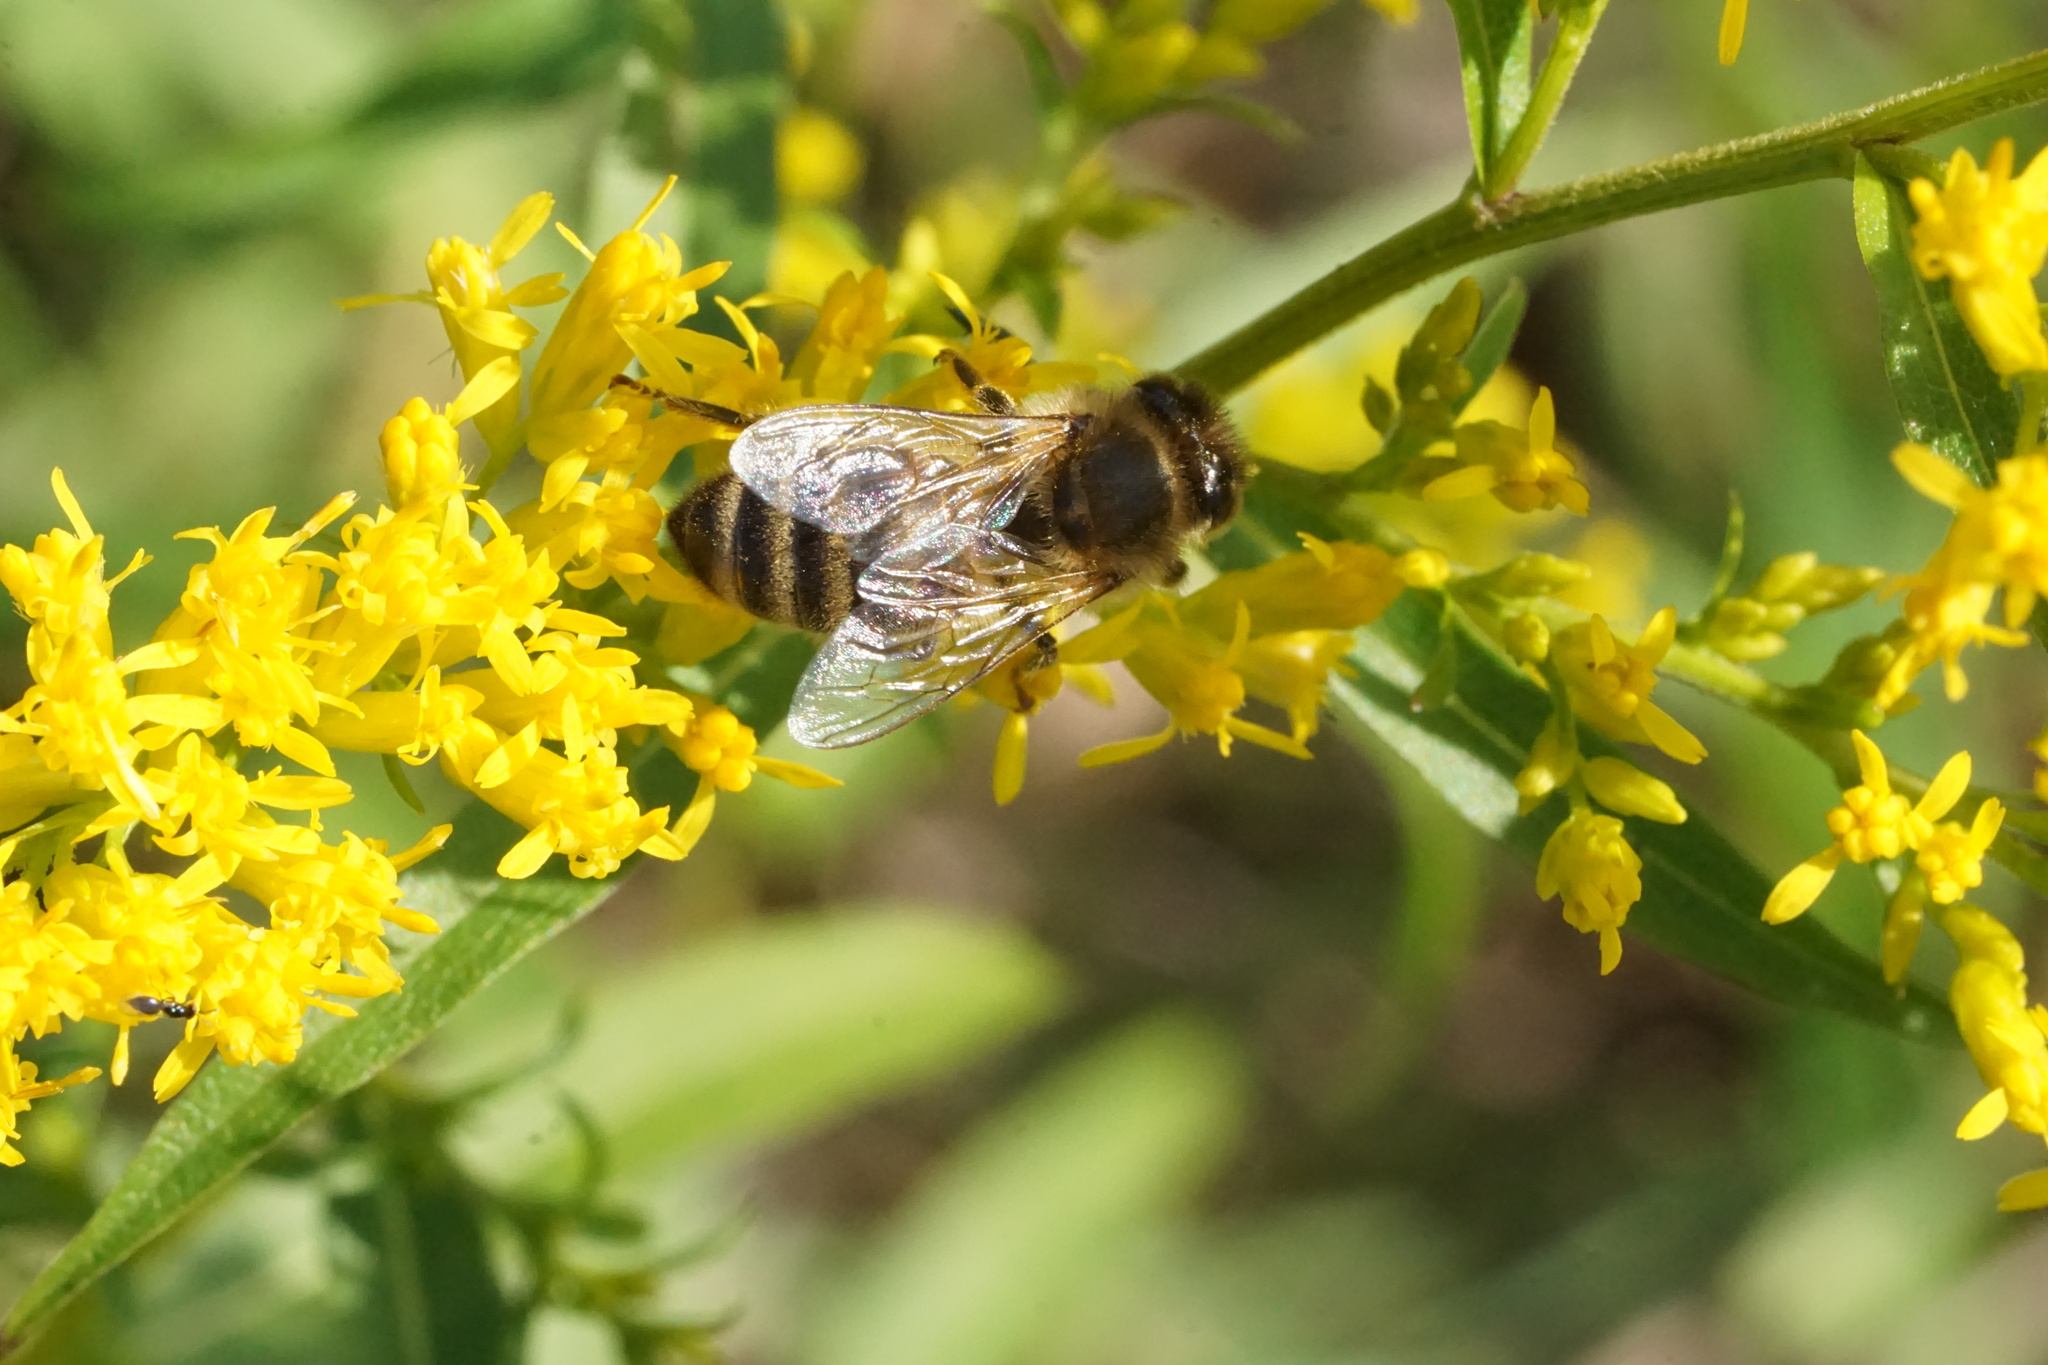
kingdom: Animalia
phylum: Arthropoda
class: Insecta
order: Hymenoptera
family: Apidae
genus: Apis
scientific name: Apis mellifera
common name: Honey bee
